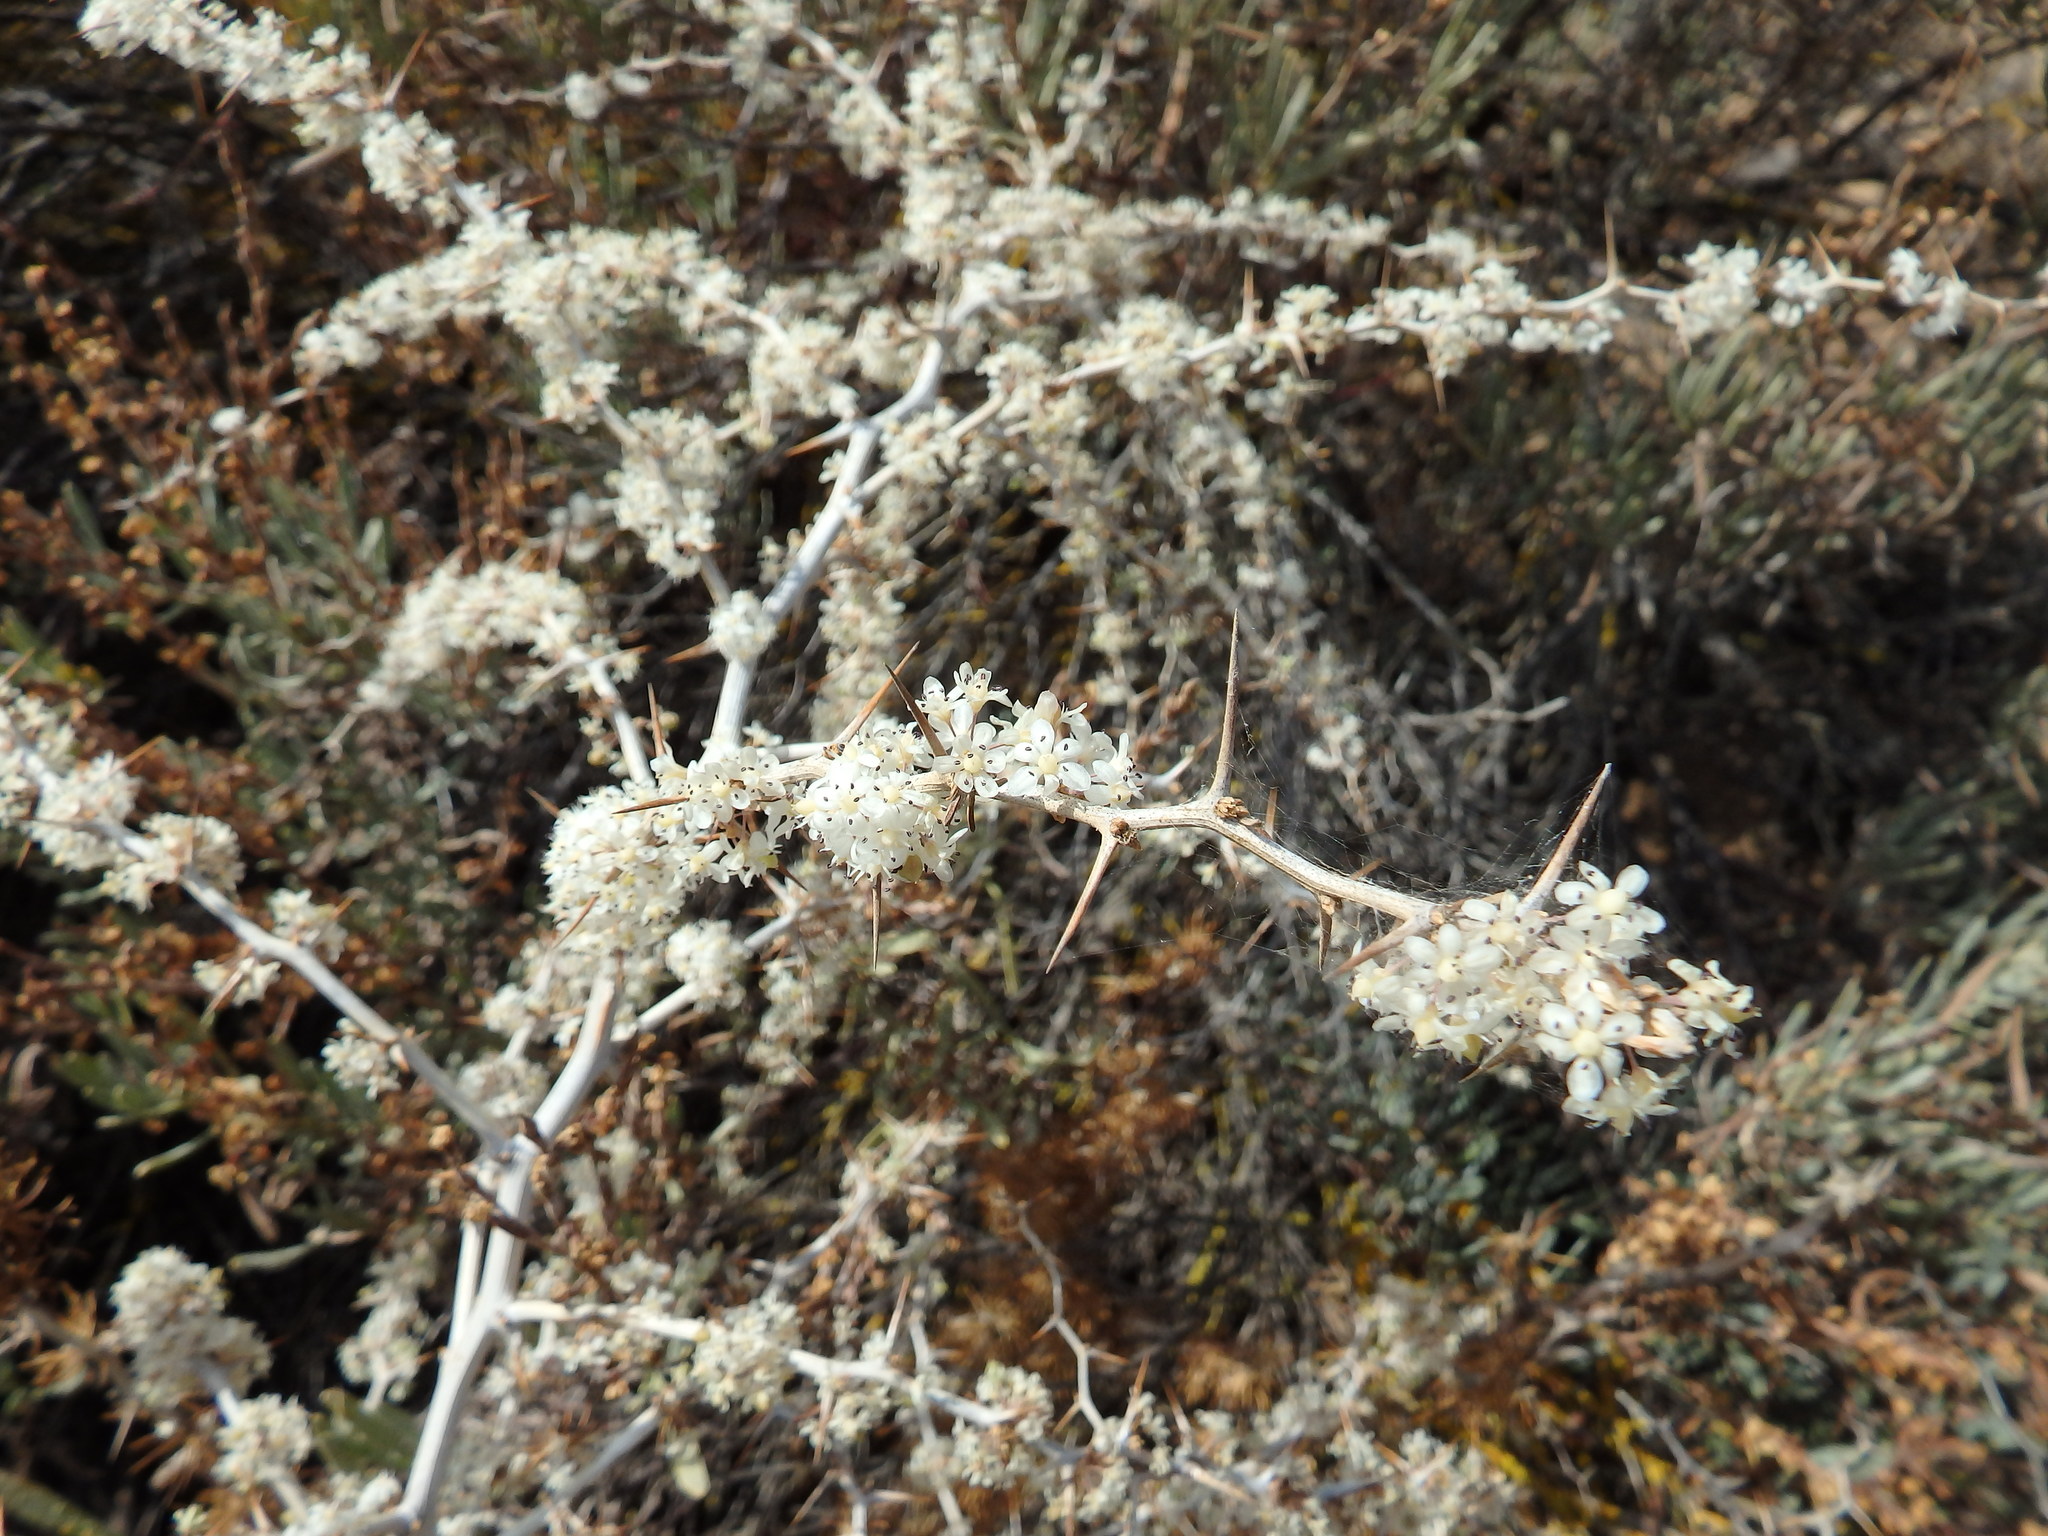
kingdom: Plantae
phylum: Tracheophyta
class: Liliopsida
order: Asparagales
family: Asparagaceae
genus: Asparagus
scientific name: Asparagus albus
